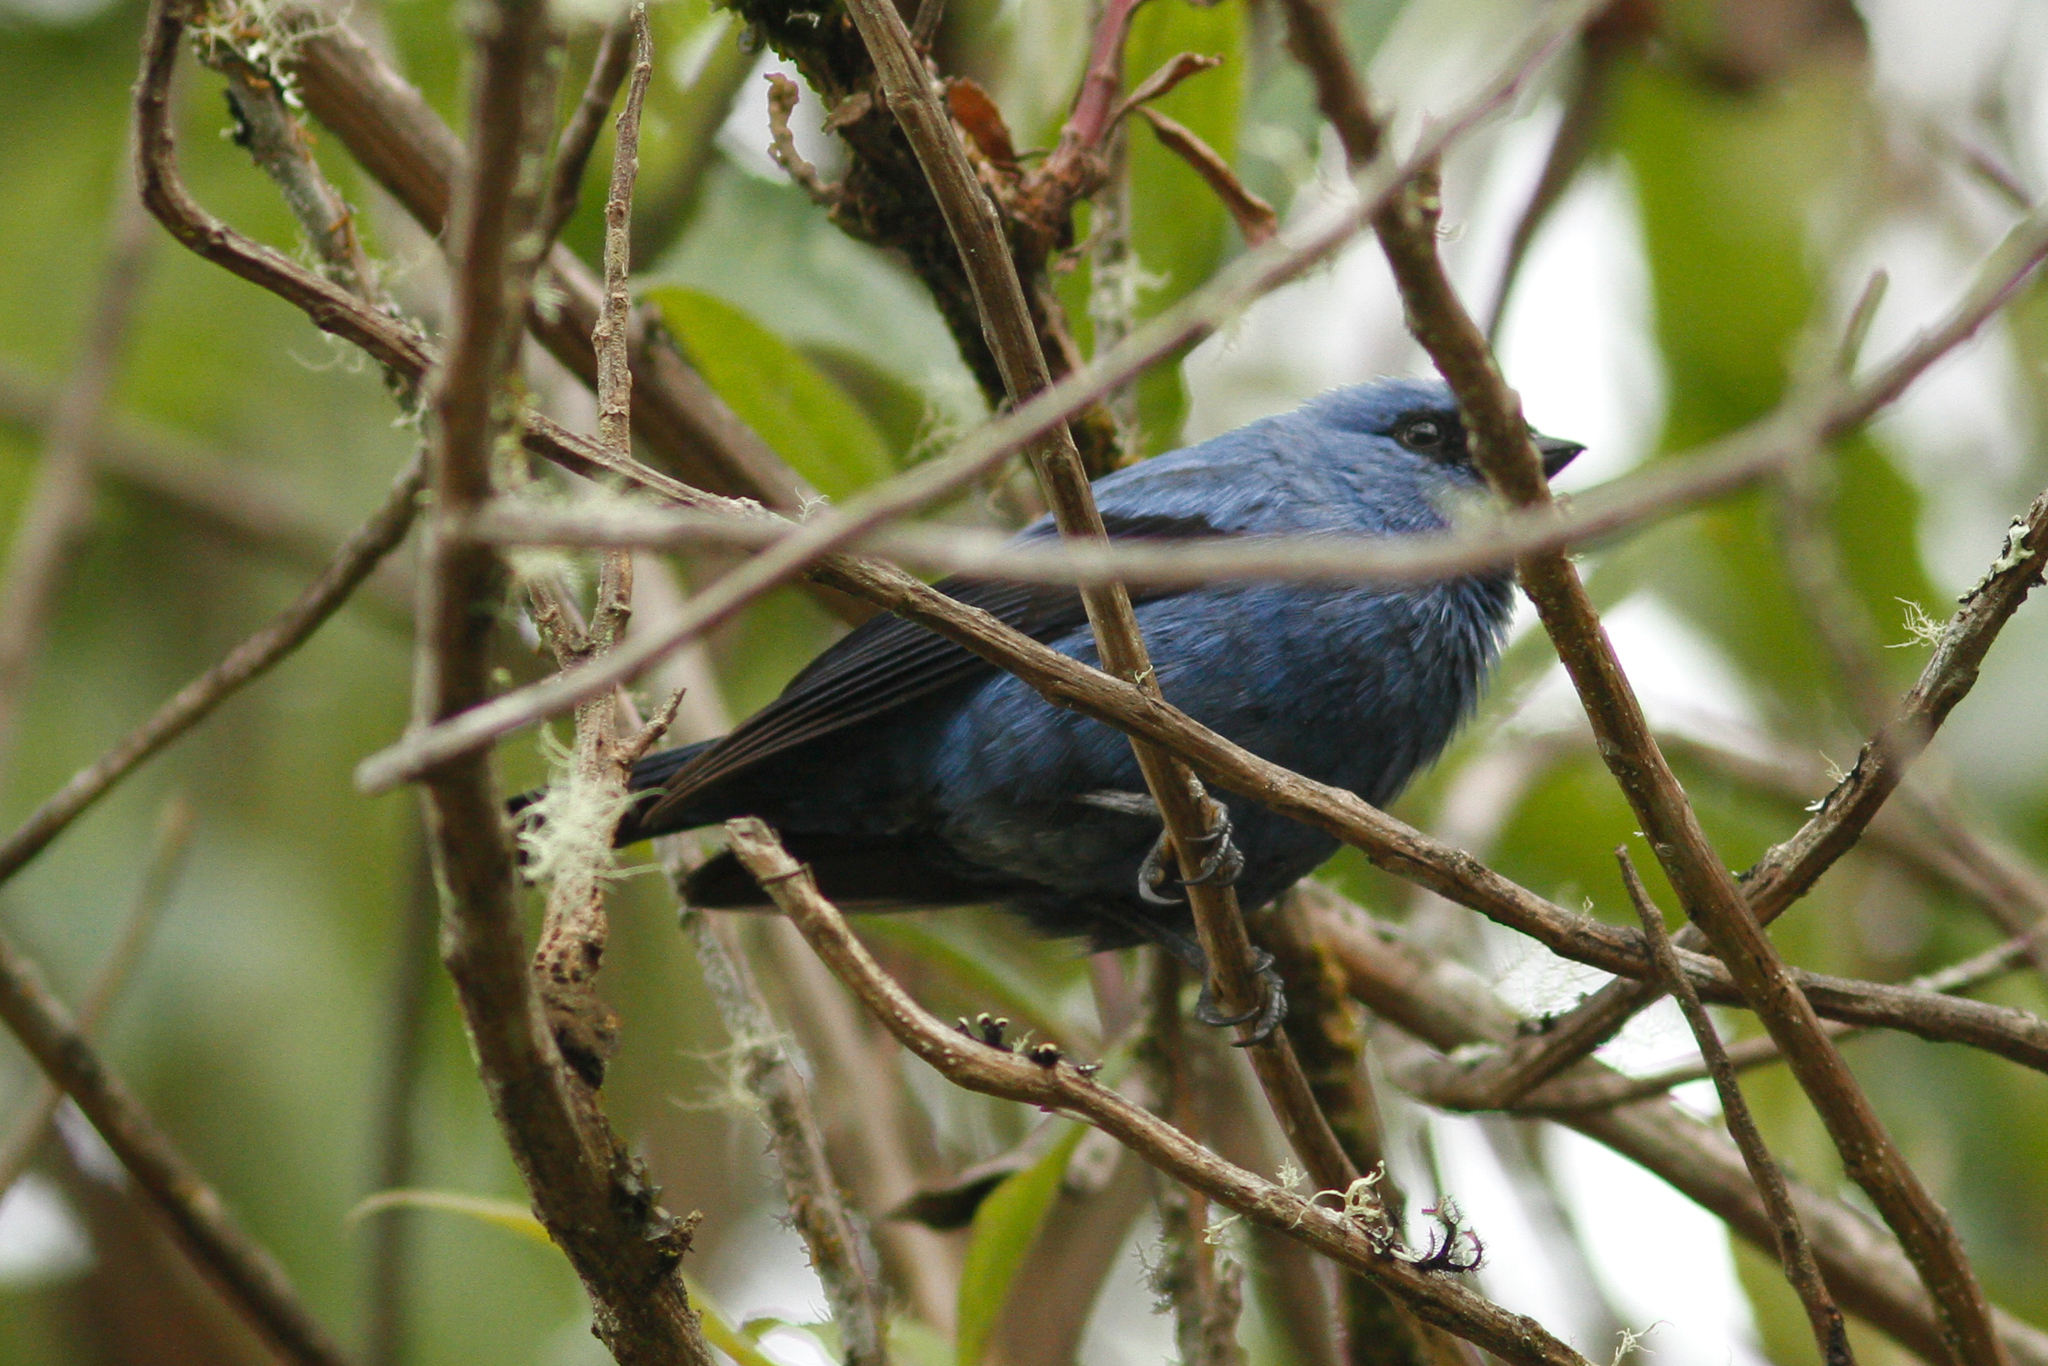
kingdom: Animalia
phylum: Chordata
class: Aves
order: Passeriformes
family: Thraupidae
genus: Tangara
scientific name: Tangara vassorii
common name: Blue-and-black tanager
